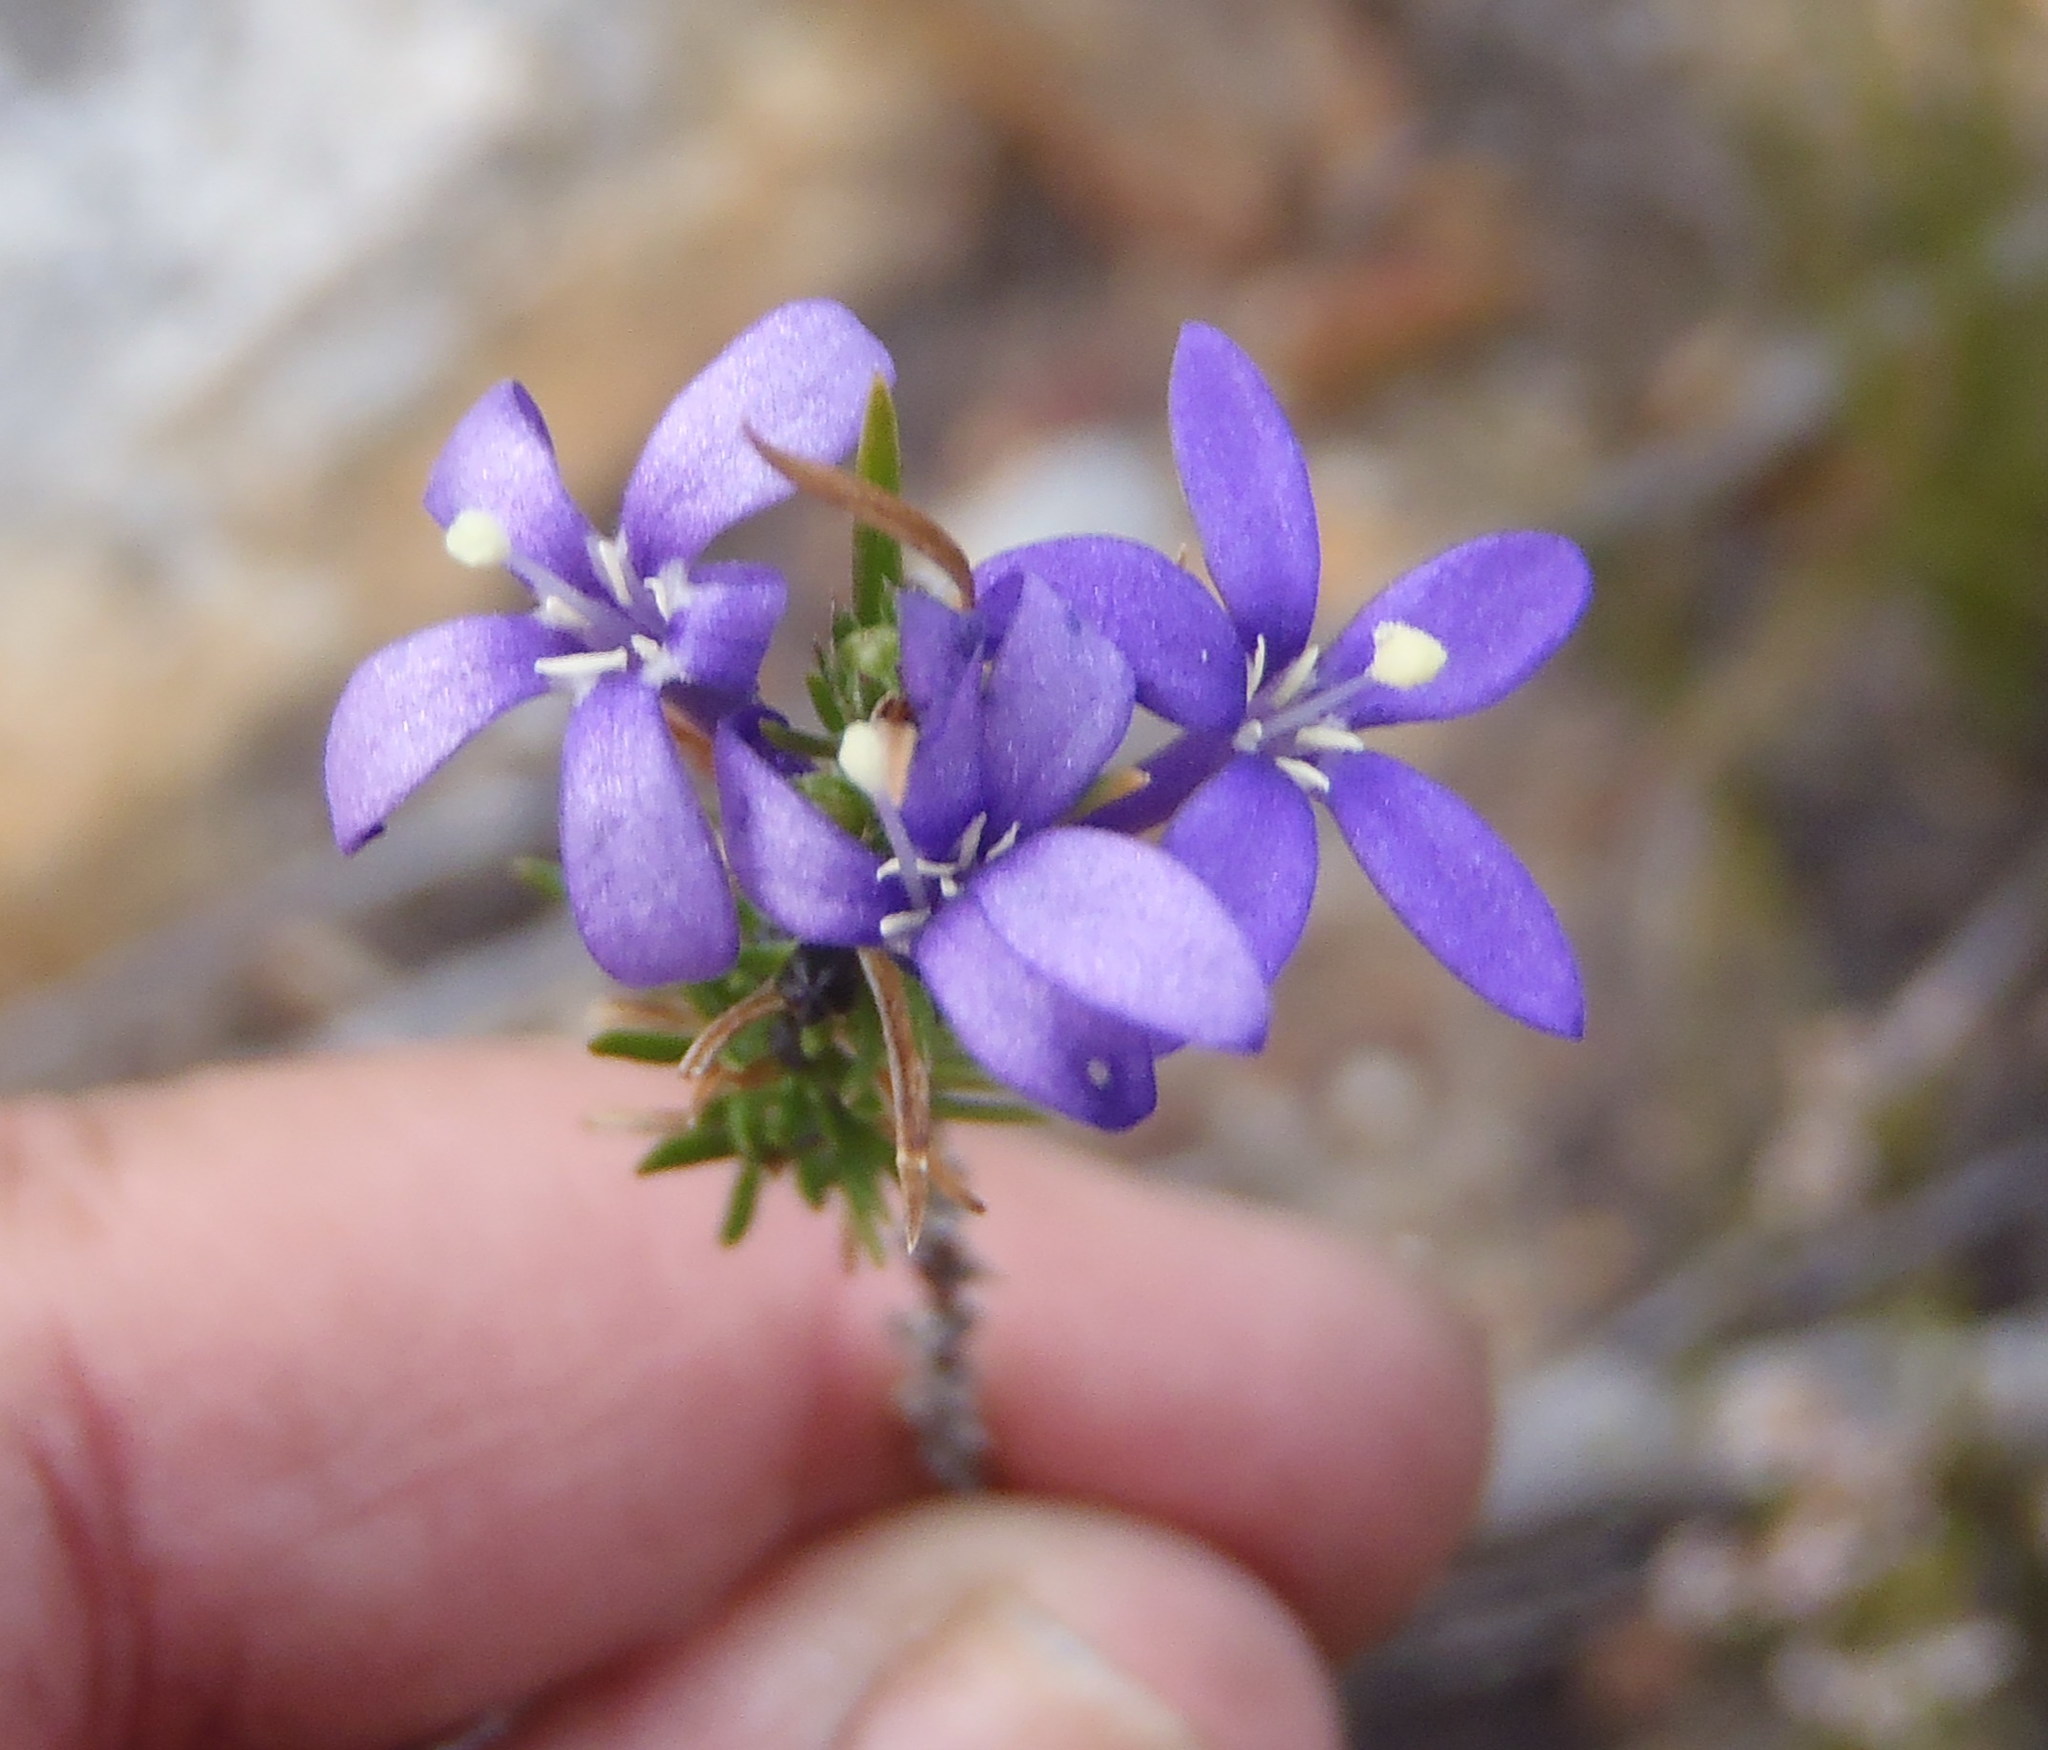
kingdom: Plantae
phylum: Tracheophyta
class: Magnoliopsida
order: Asterales
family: Campanulaceae
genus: Theilera
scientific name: Theilera guthriei
